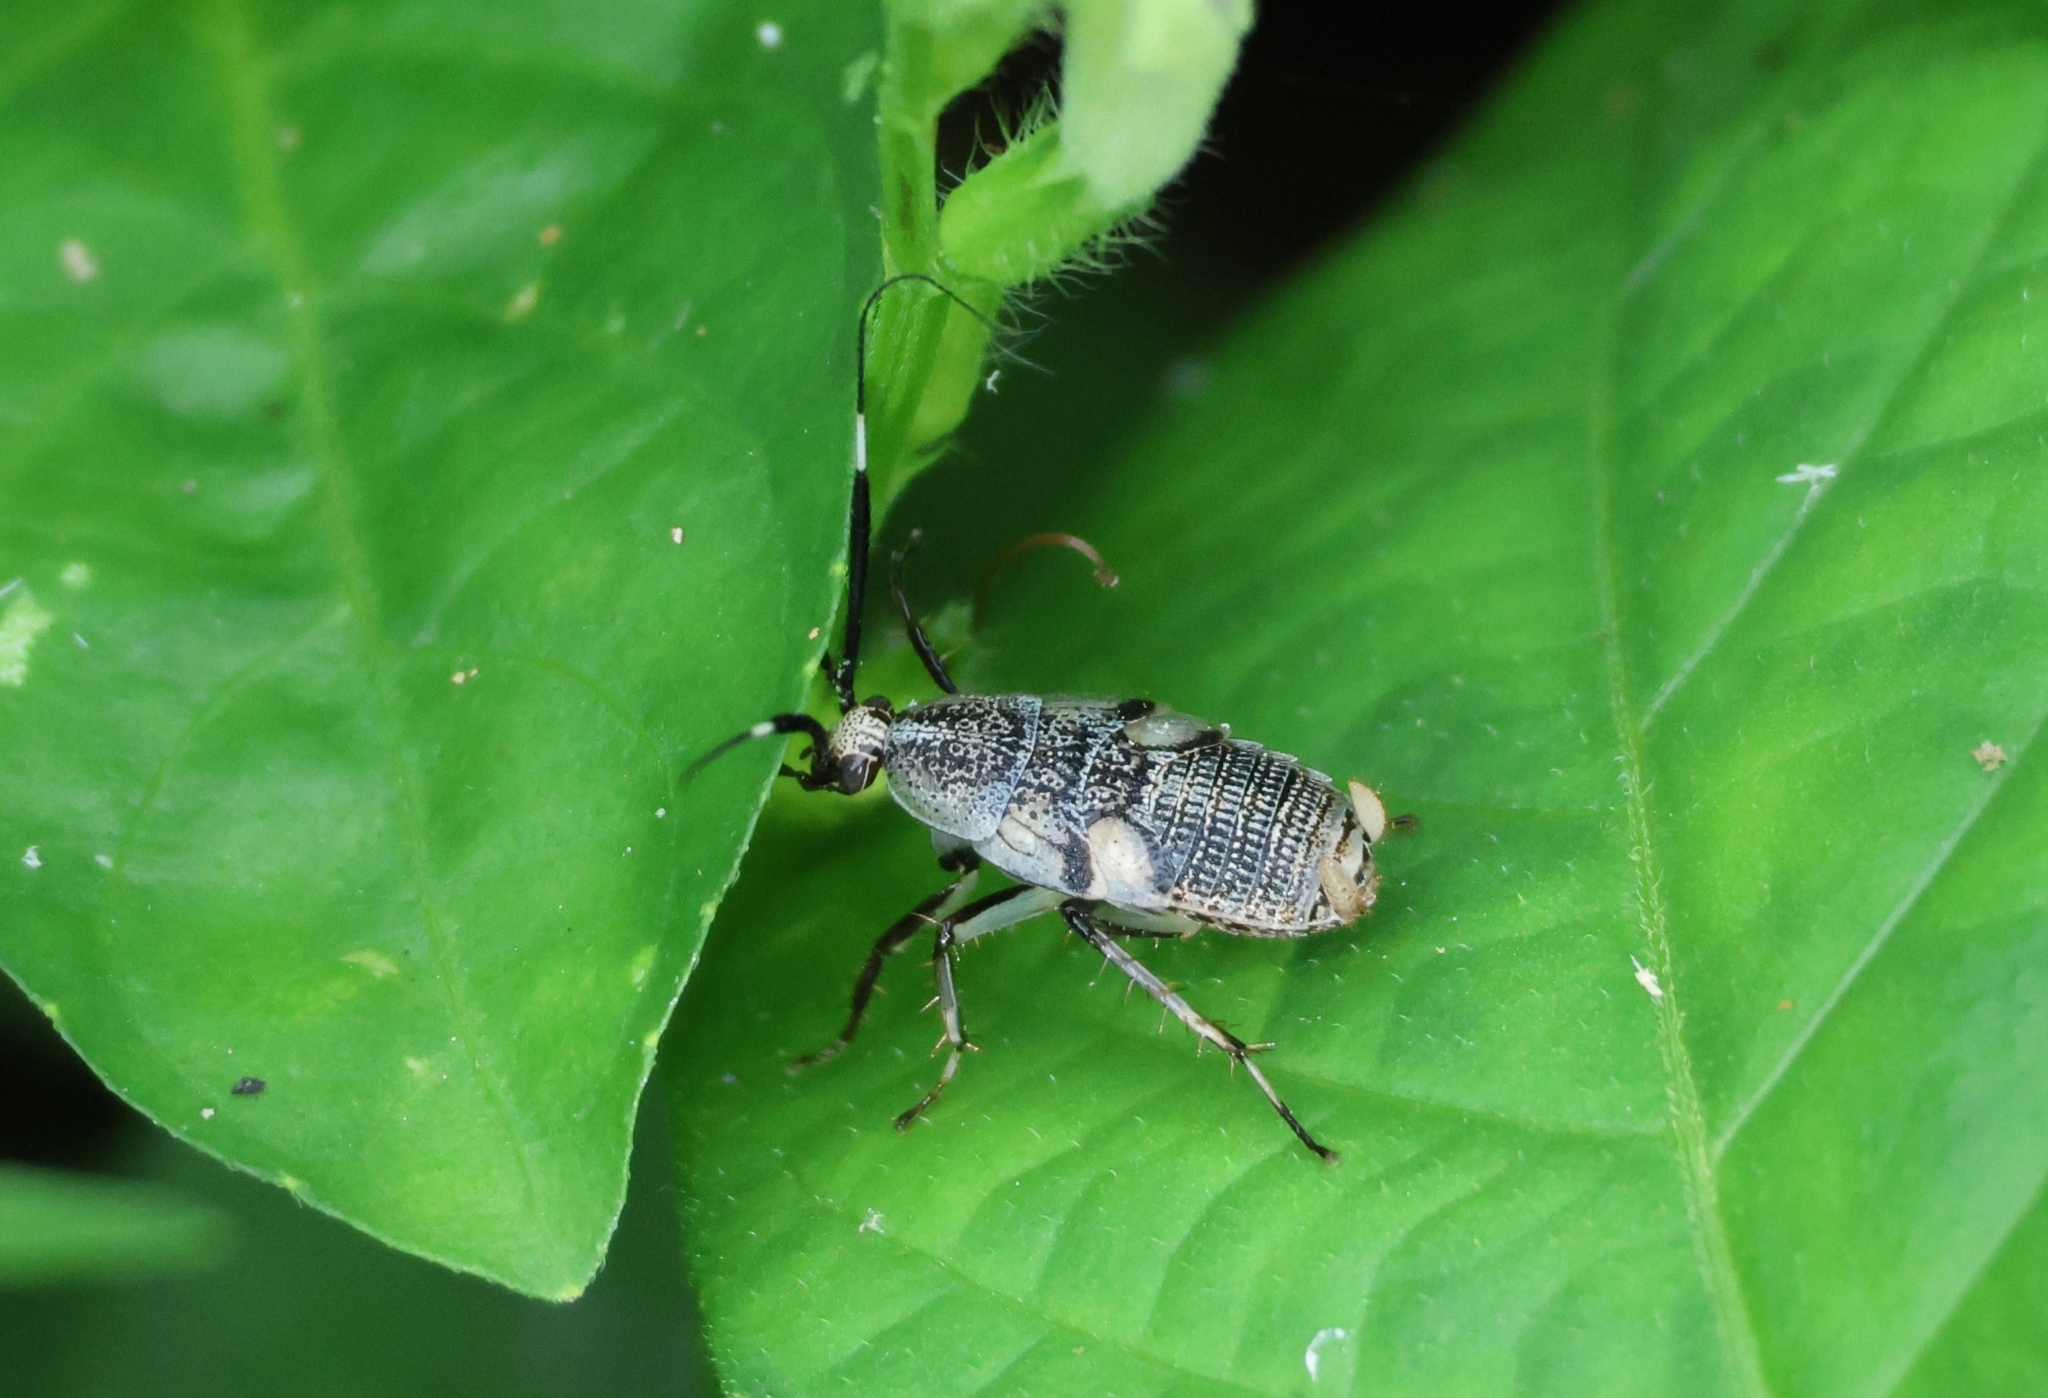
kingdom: Animalia
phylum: Arthropoda
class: Insecta
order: Blattodea
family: Ectobiidae
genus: Hemithyrsocera
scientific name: Hemithyrsocera histrio
